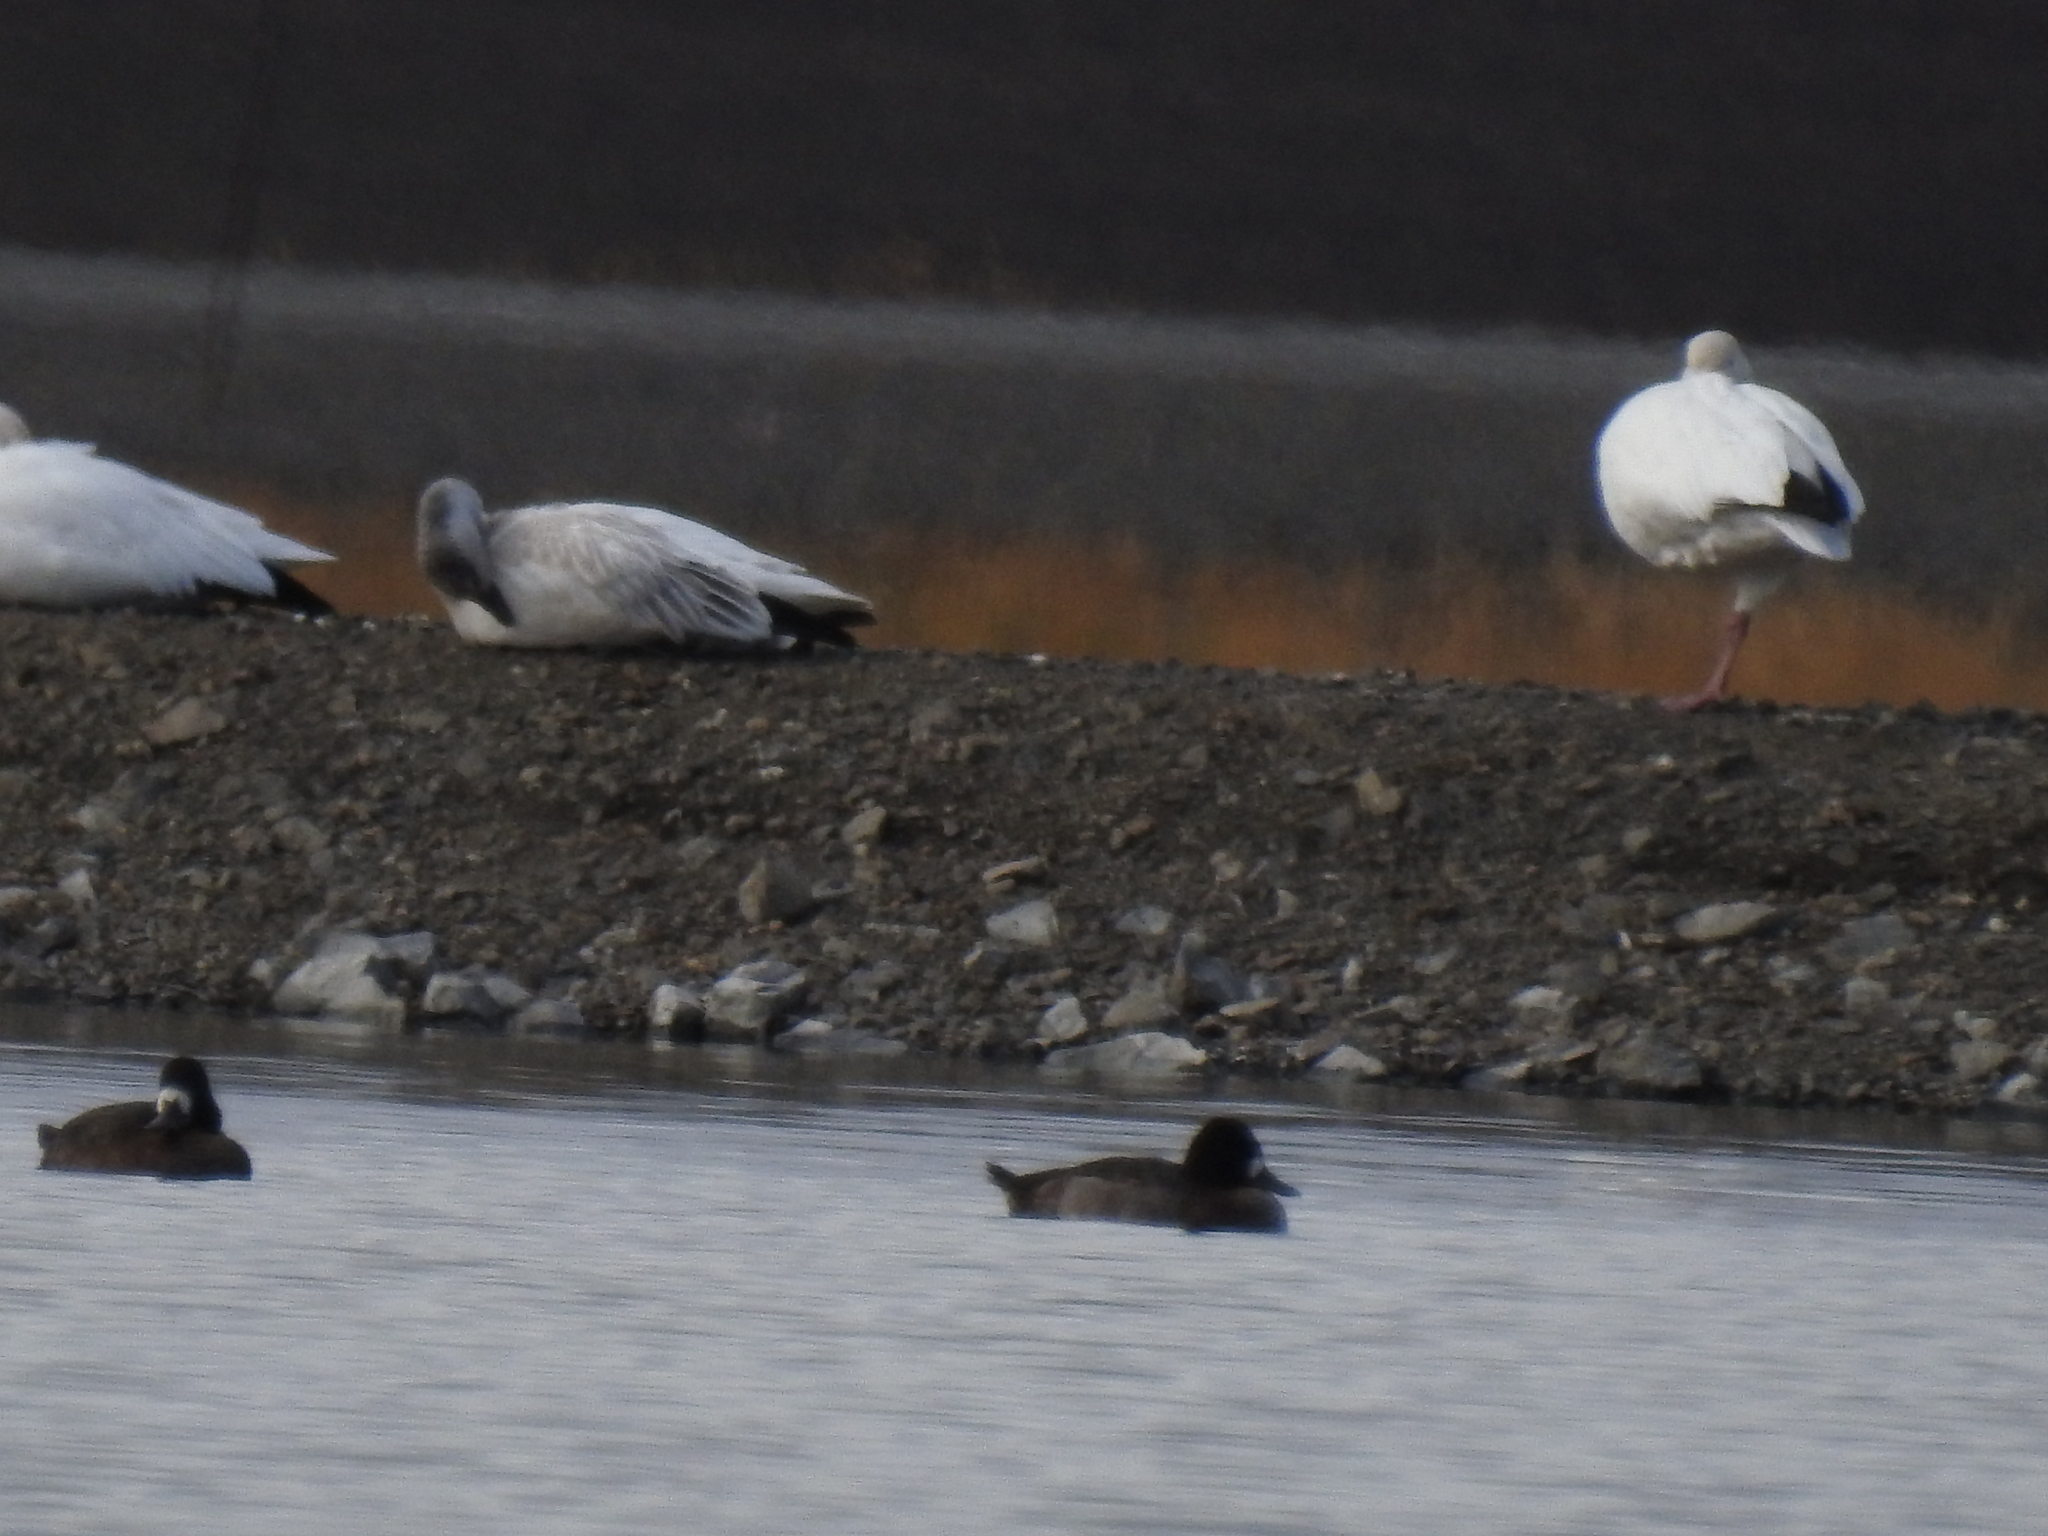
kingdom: Animalia
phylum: Chordata
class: Aves
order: Anseriformes
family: Anatidae
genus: Aythya
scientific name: Aythya affinis
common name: Lesser scaup
